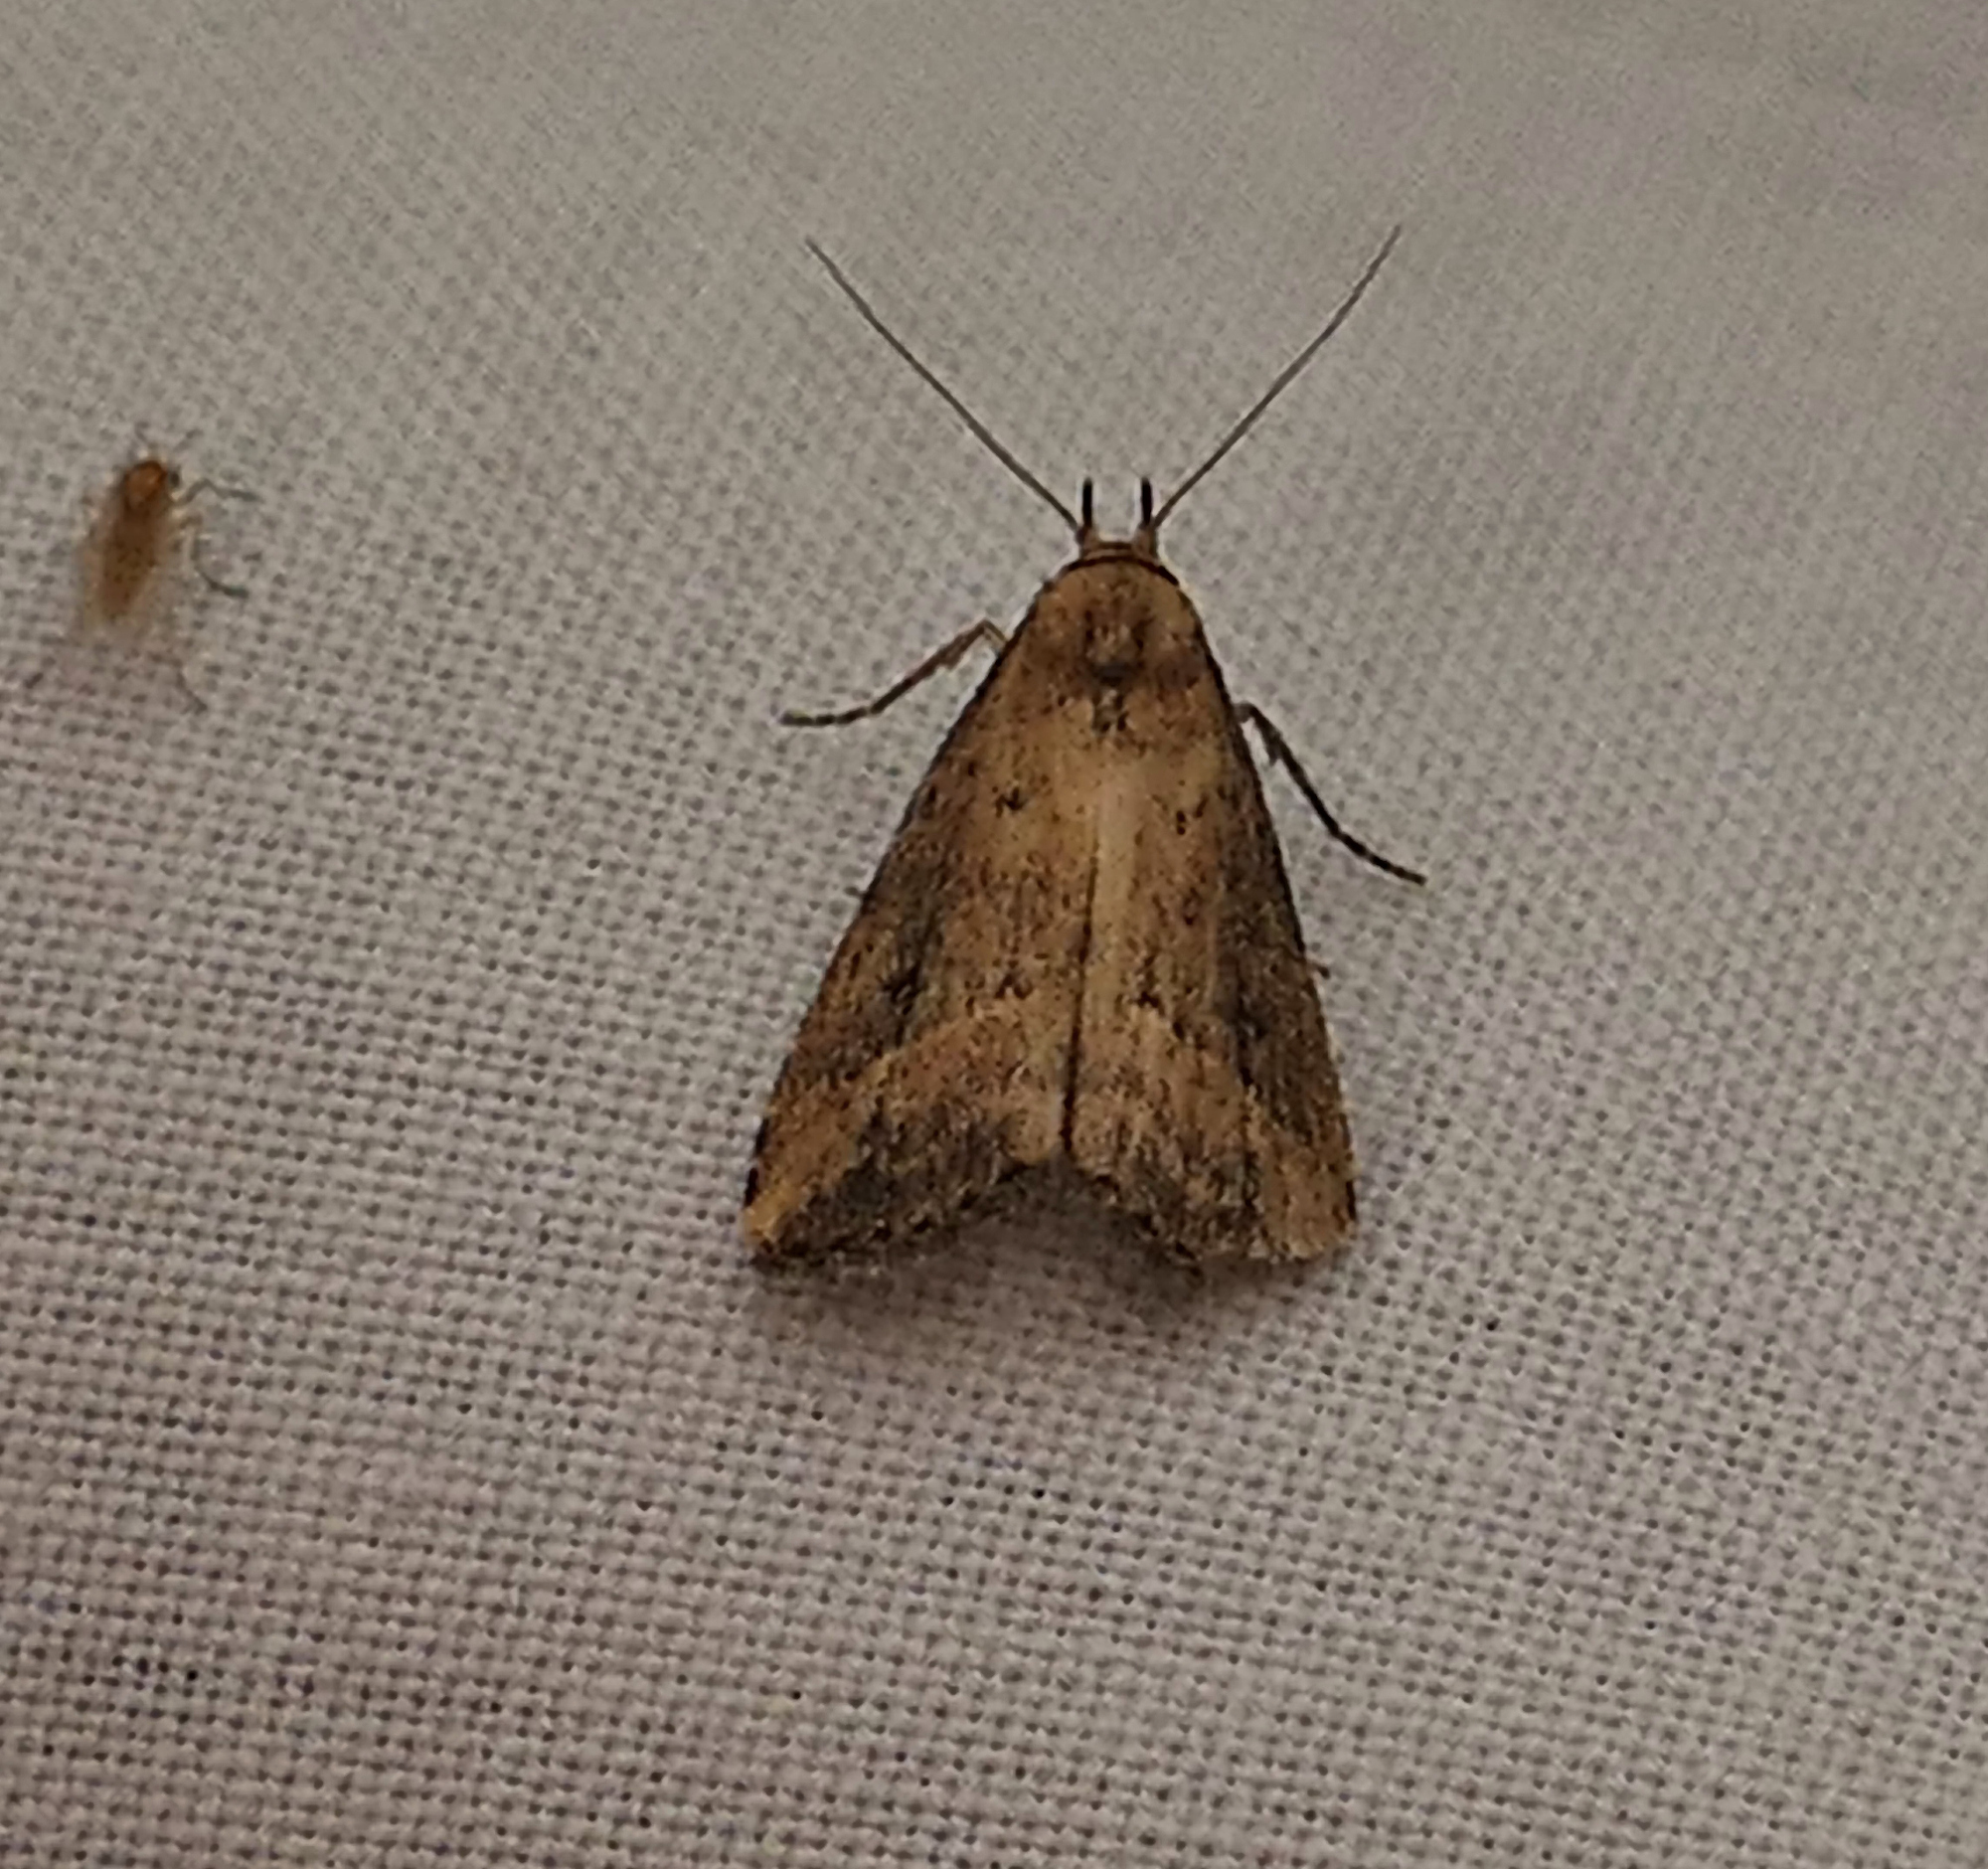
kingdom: Animalia
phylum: Arthropoda
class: Insecta
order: Lepidoptera
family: Erebidae
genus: Schrankia
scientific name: Schrankia
